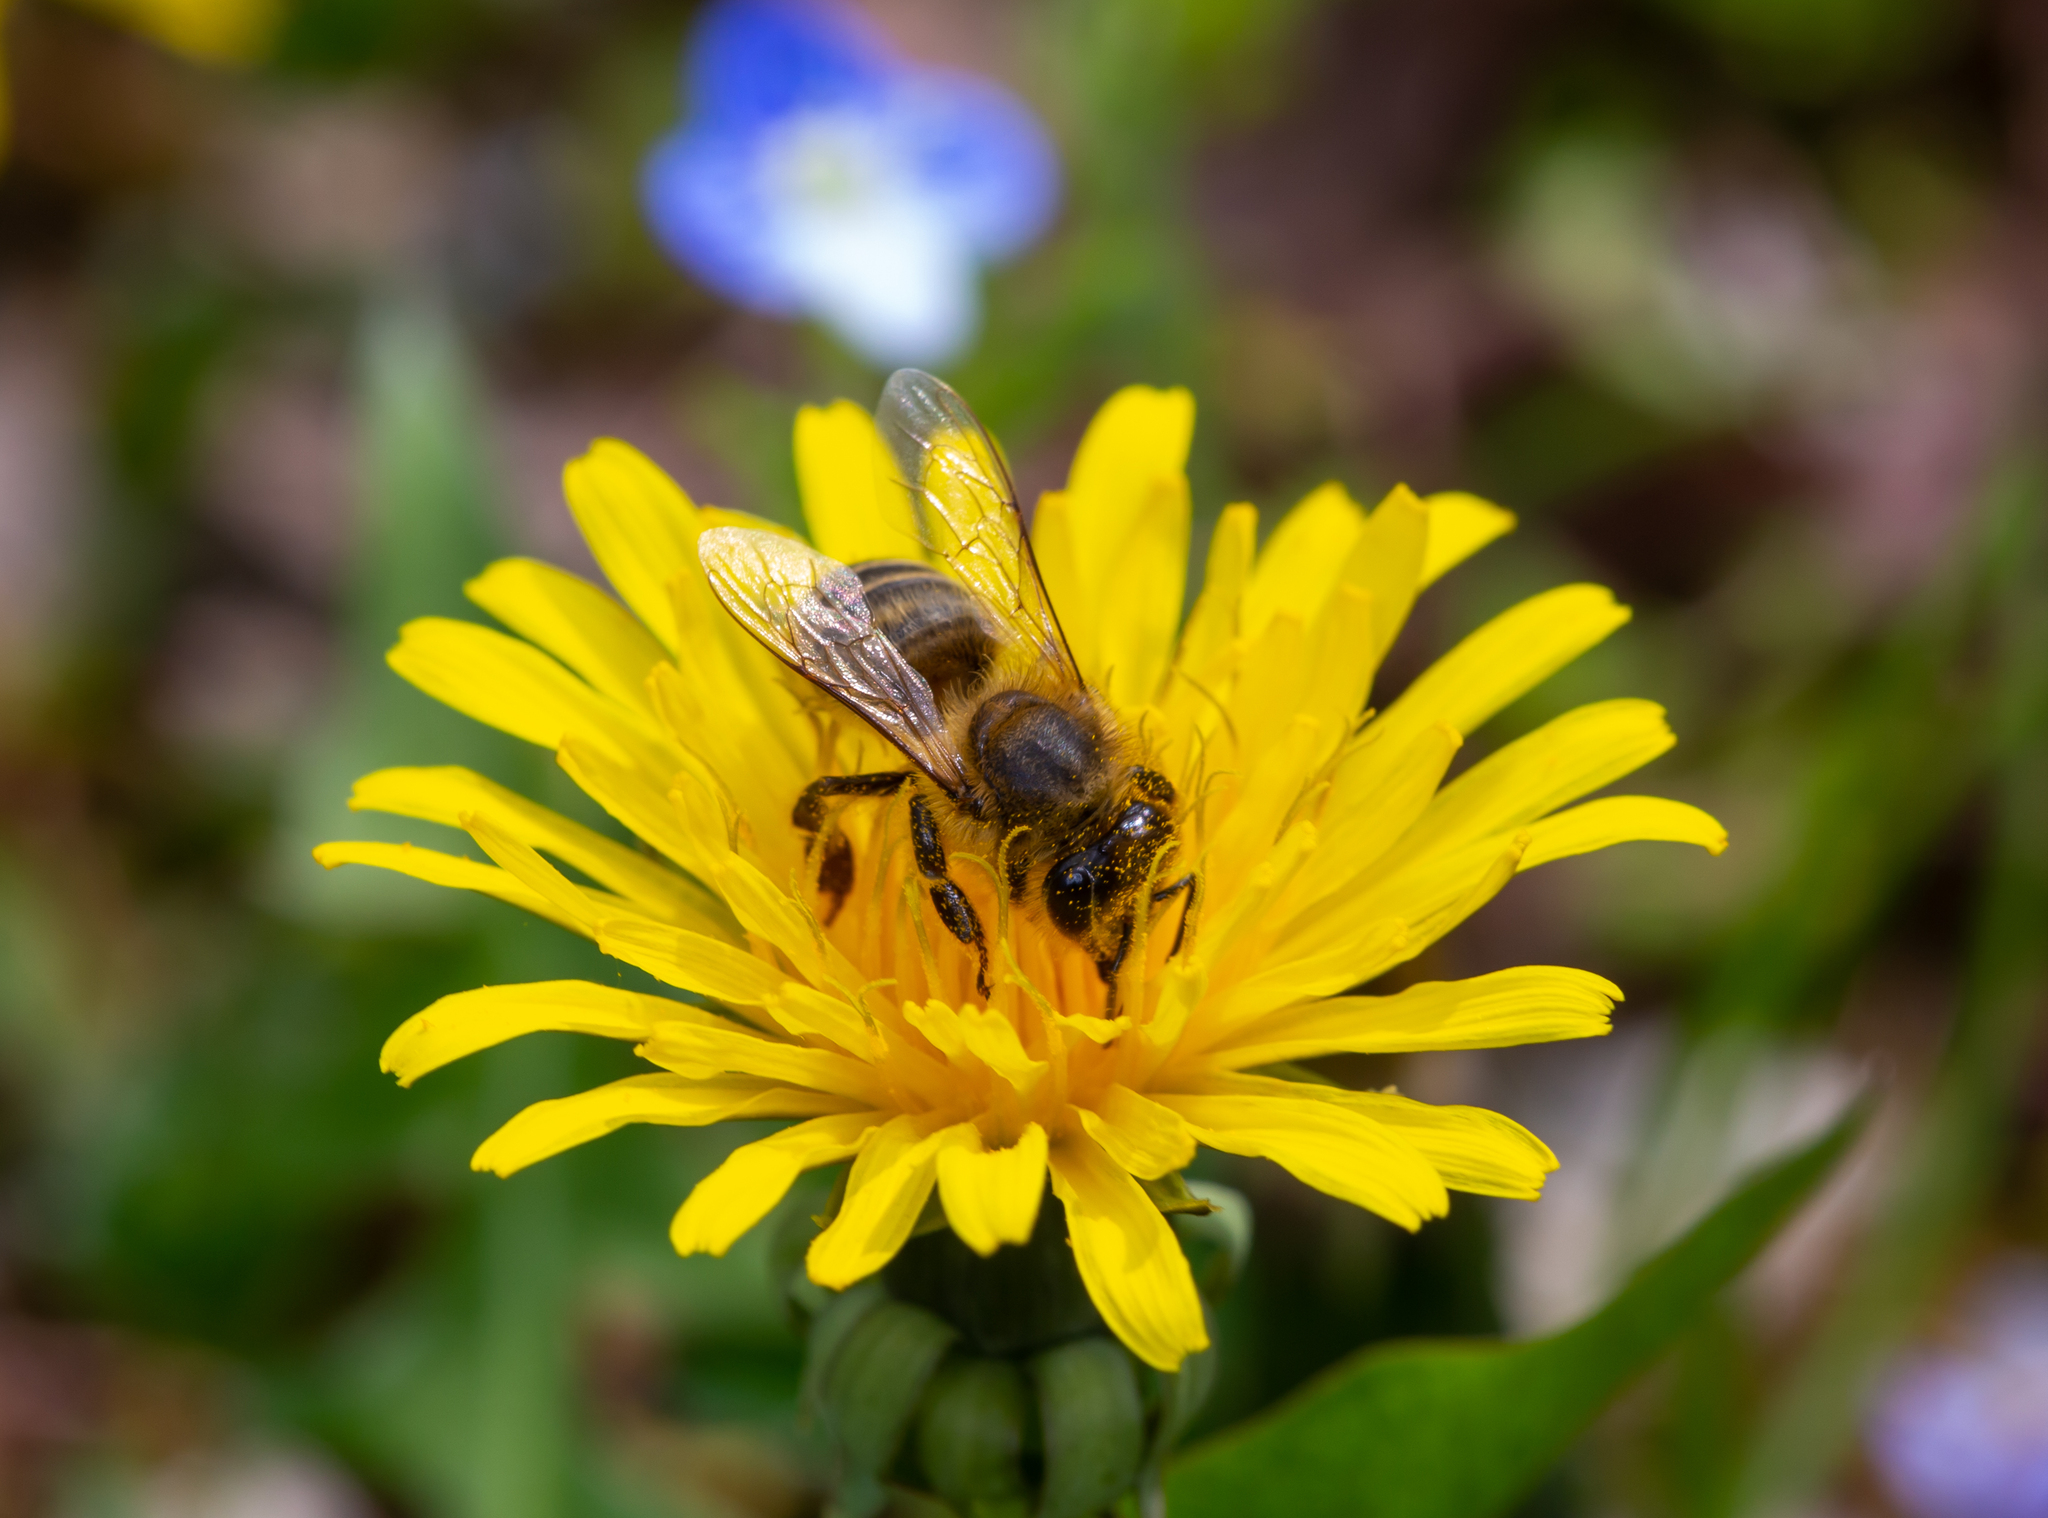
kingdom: Animalia
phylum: Arthropoda
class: Insecta
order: Hymenoptera
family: Apidae
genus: Apis
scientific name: Apis mellifera
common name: Honey bee
